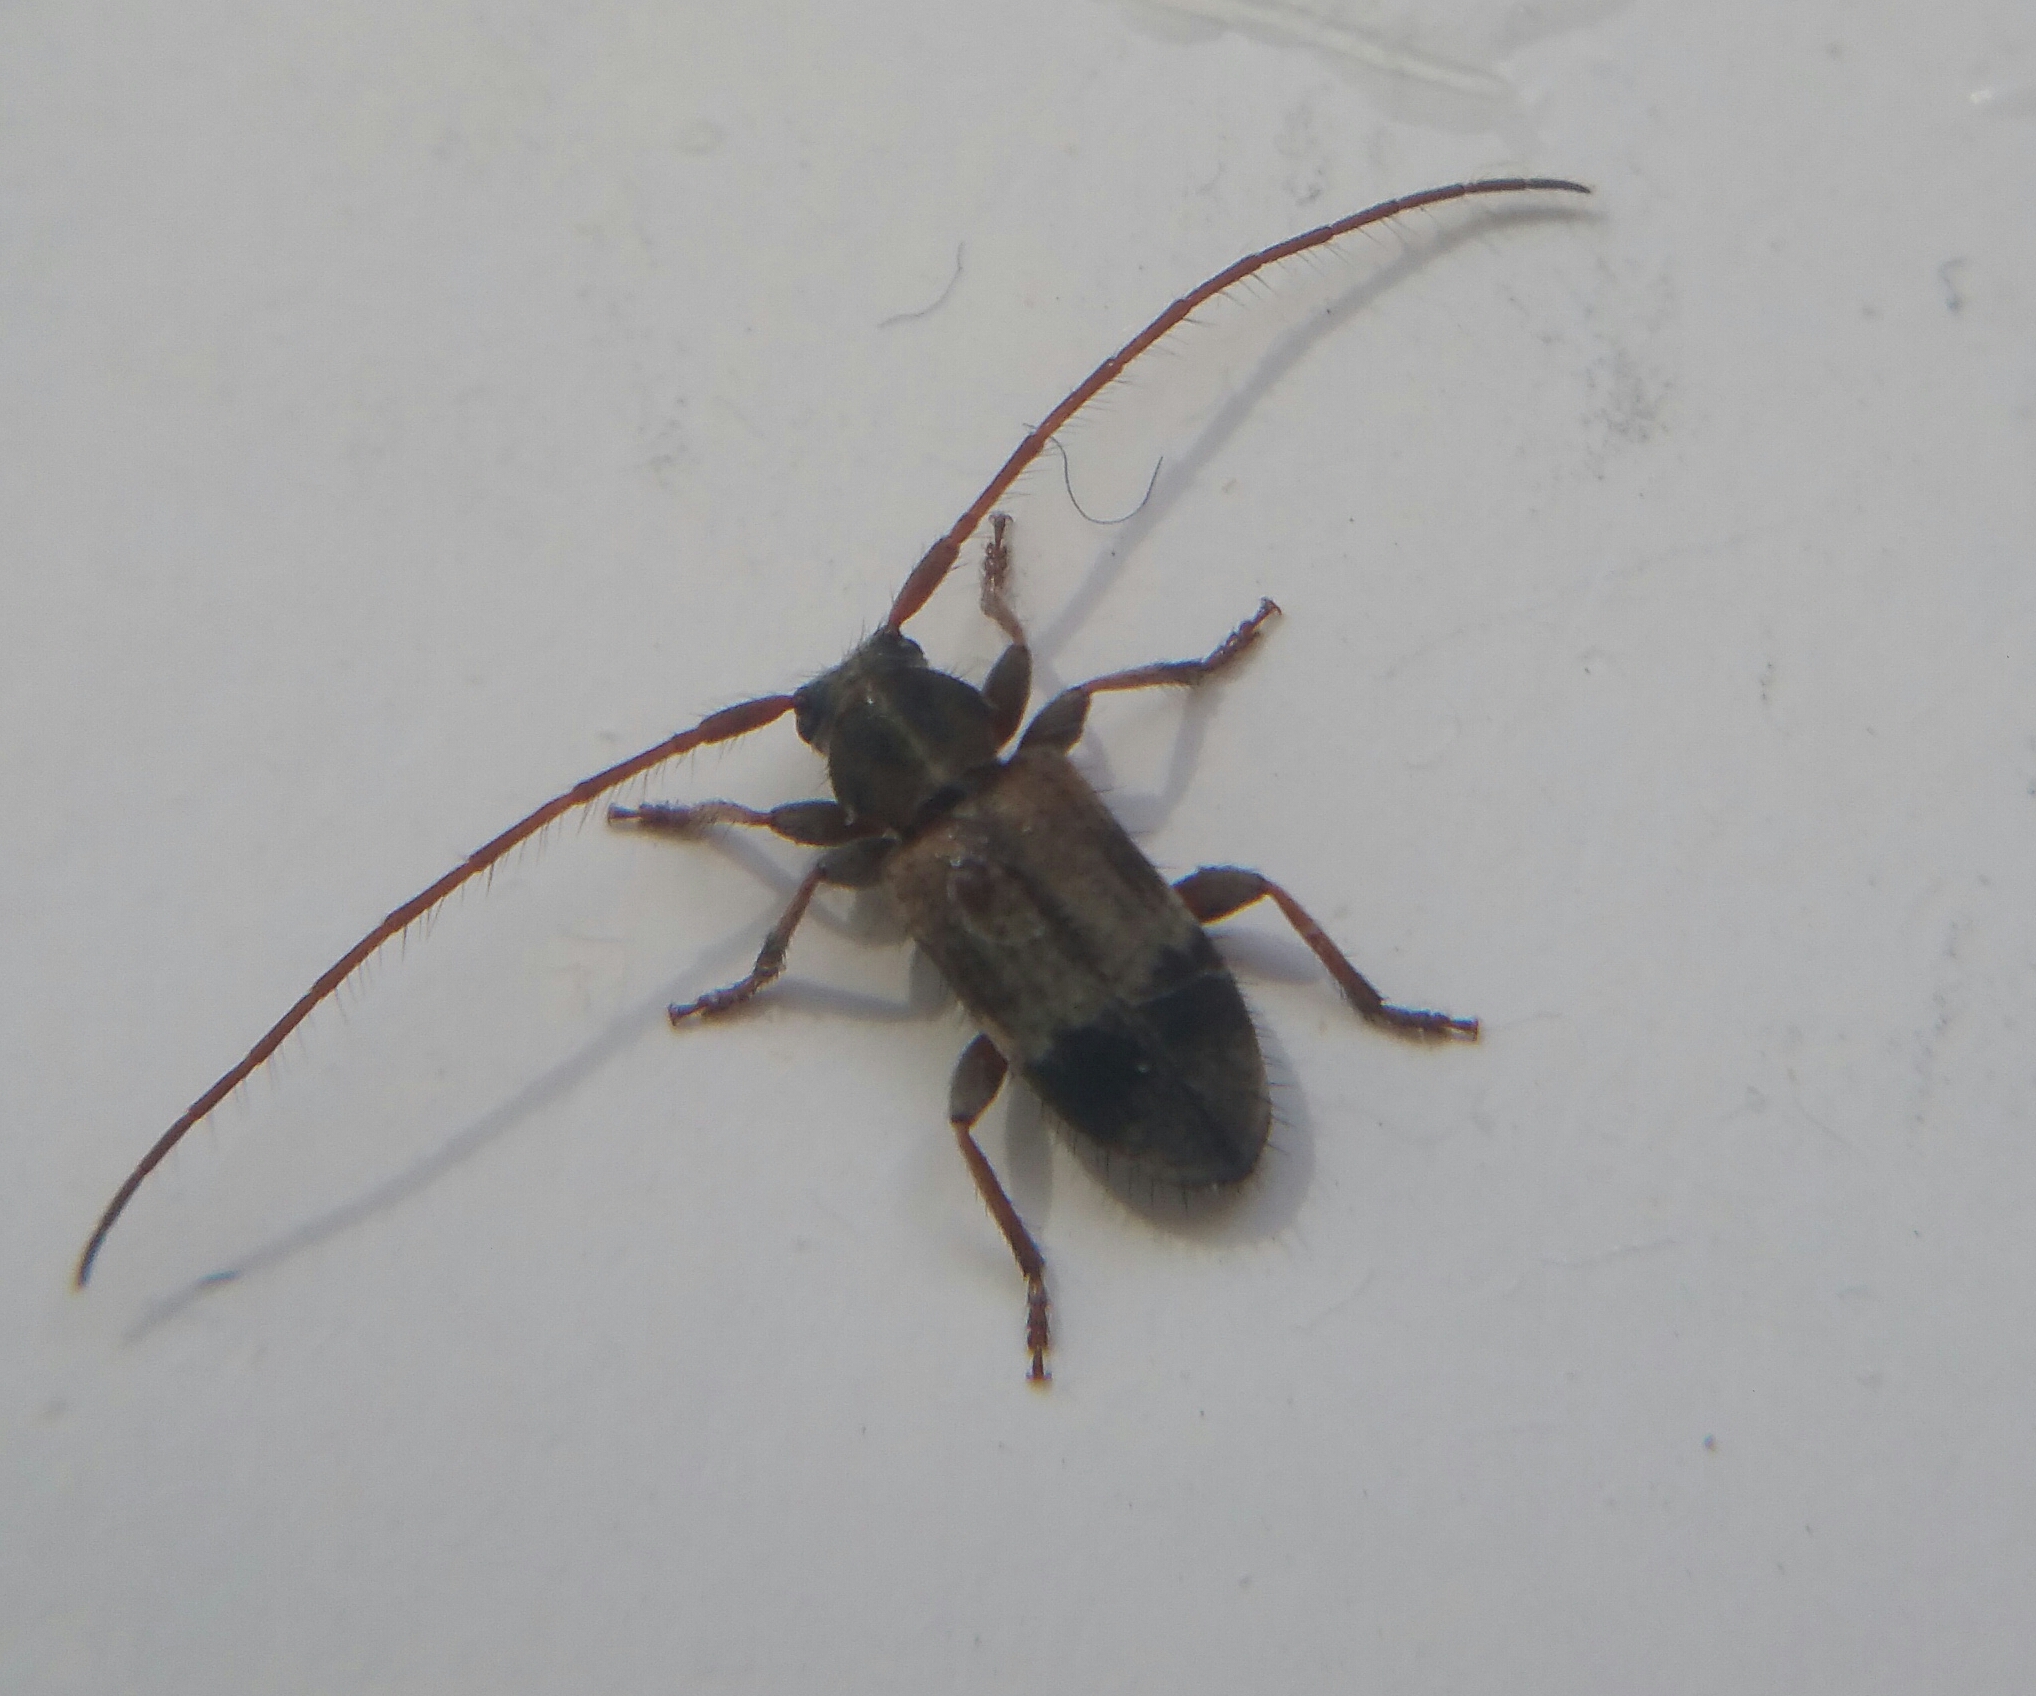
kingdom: Animalia
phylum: Arthropoda
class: Insecta
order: Coleoptera
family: Cerambycidae
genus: Exocentrus
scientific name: Exocentrus lusitanus
